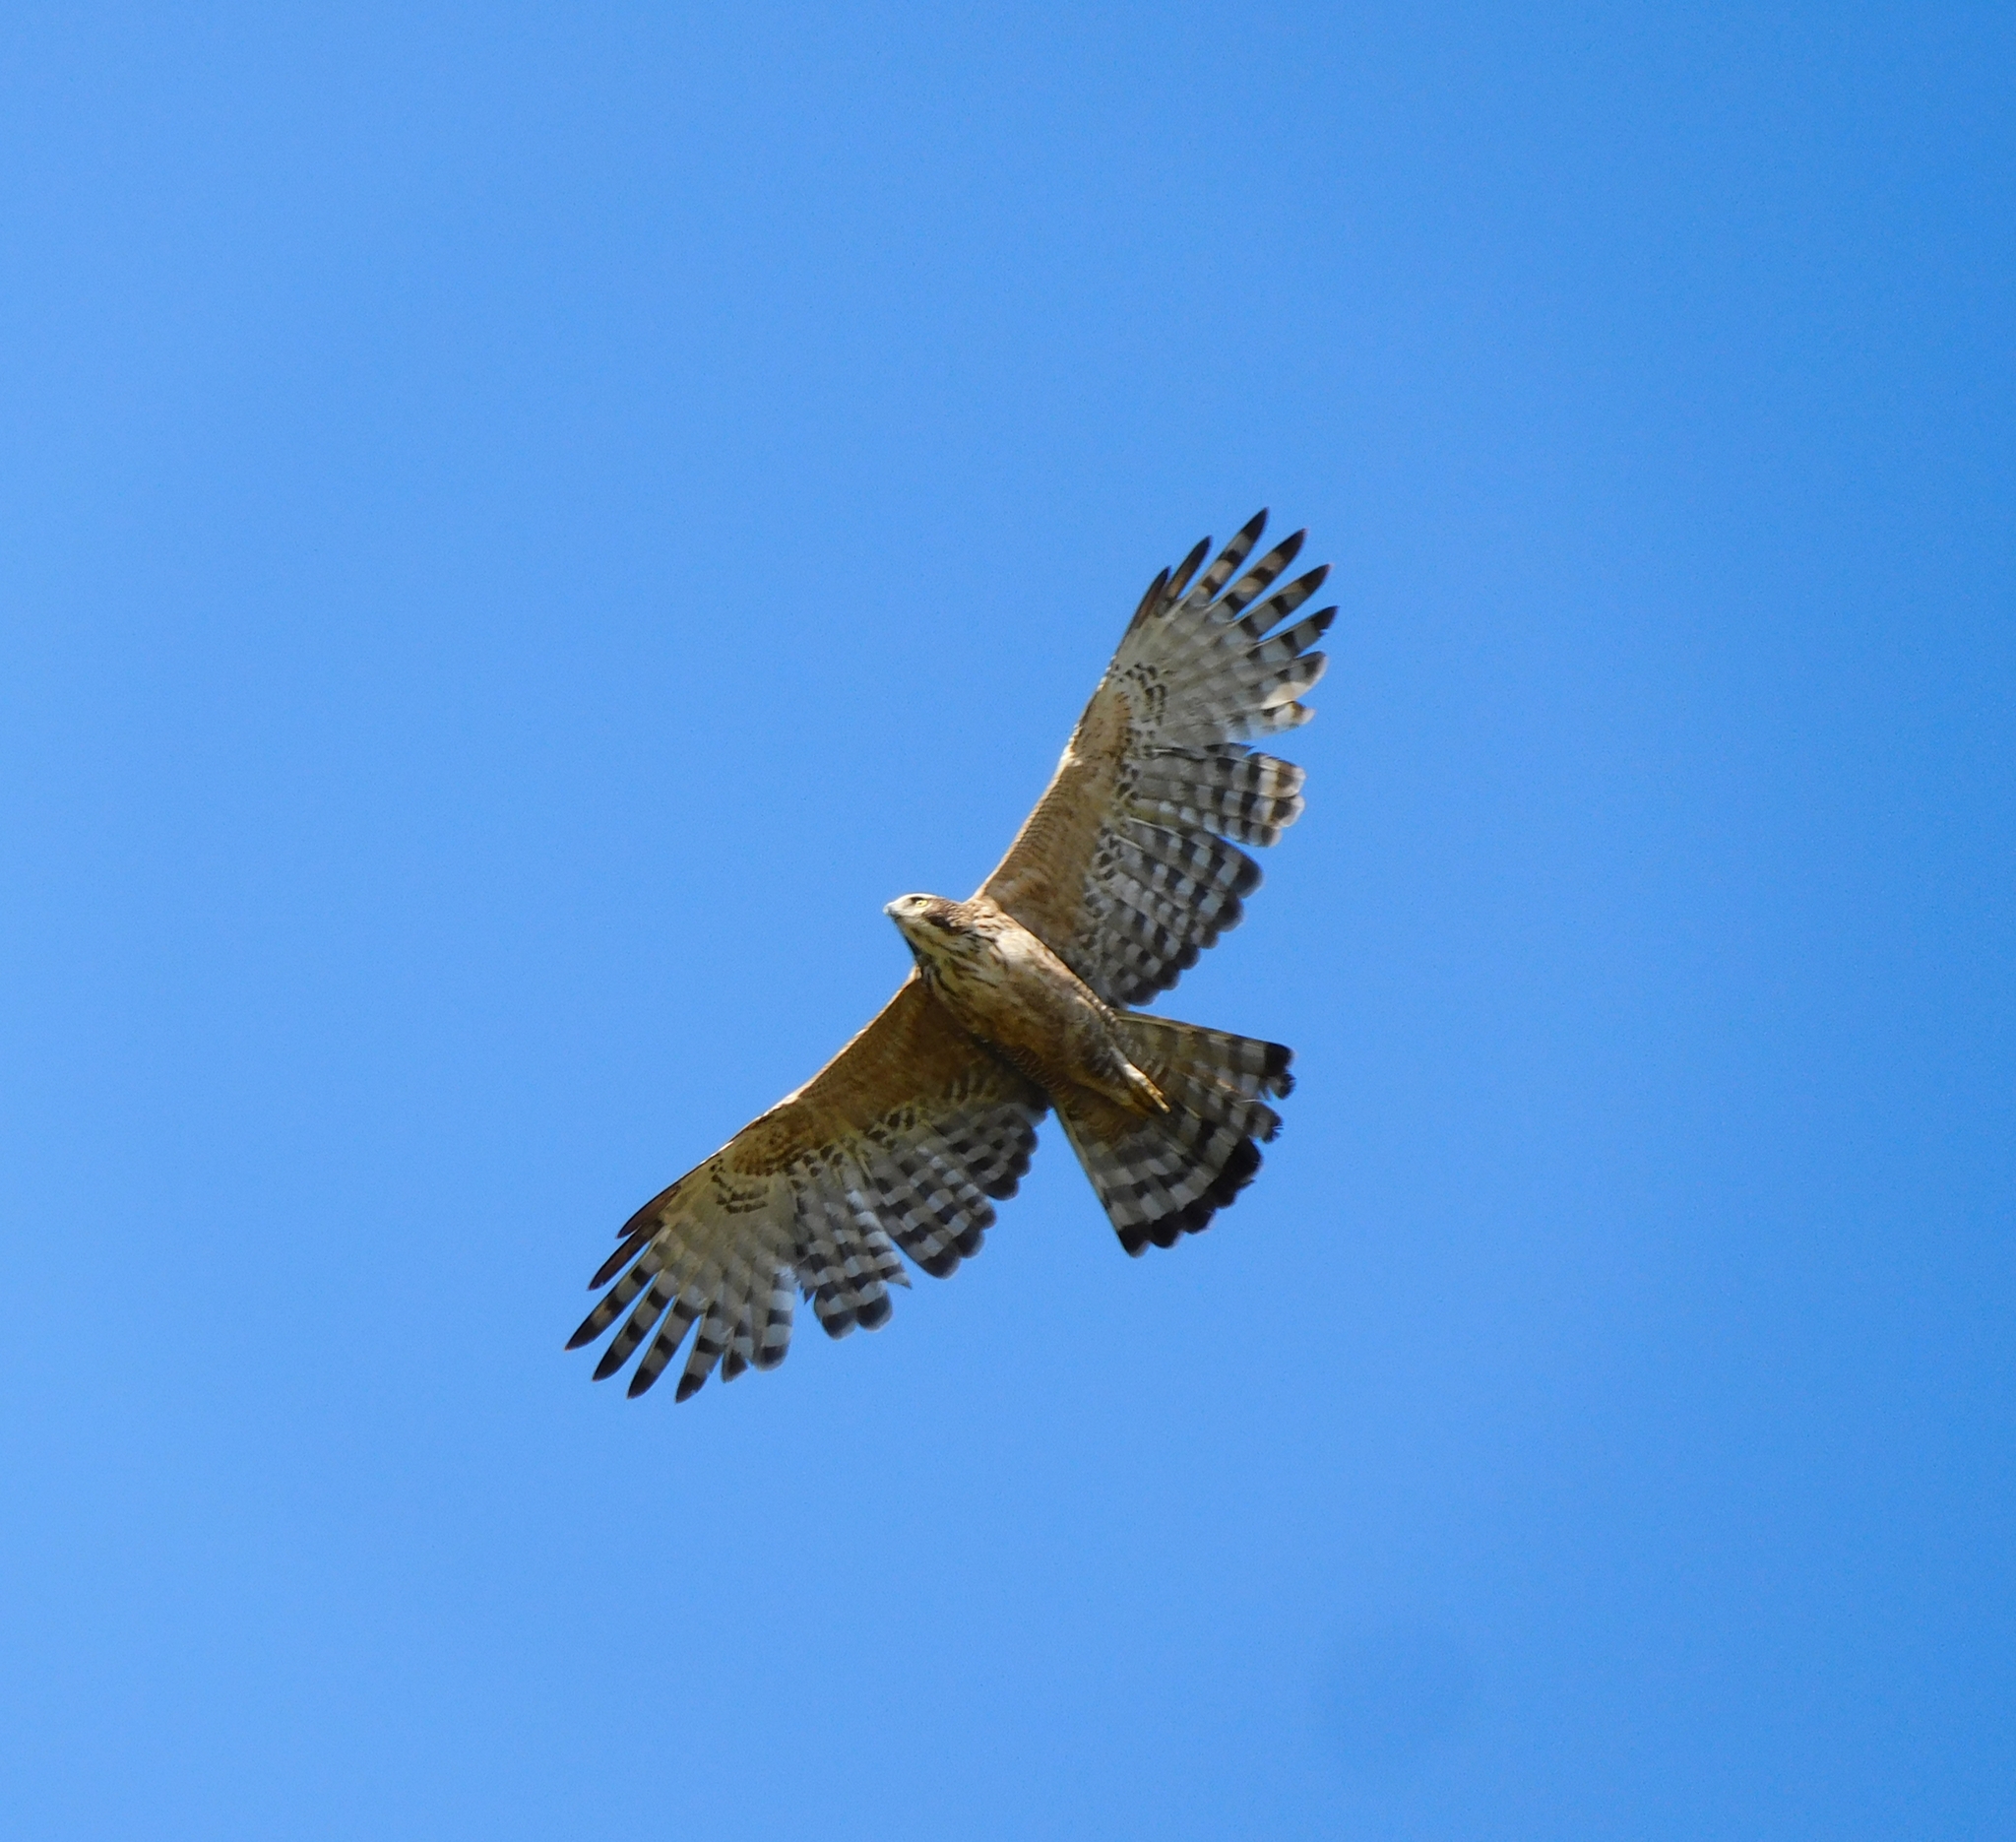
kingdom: Animalia
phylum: Chordata
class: Aves
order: Accipitriformes
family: Accipitridae
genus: Nisaetus
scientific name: Nisaetus nipalensis
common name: Mountain hawk-eagle
